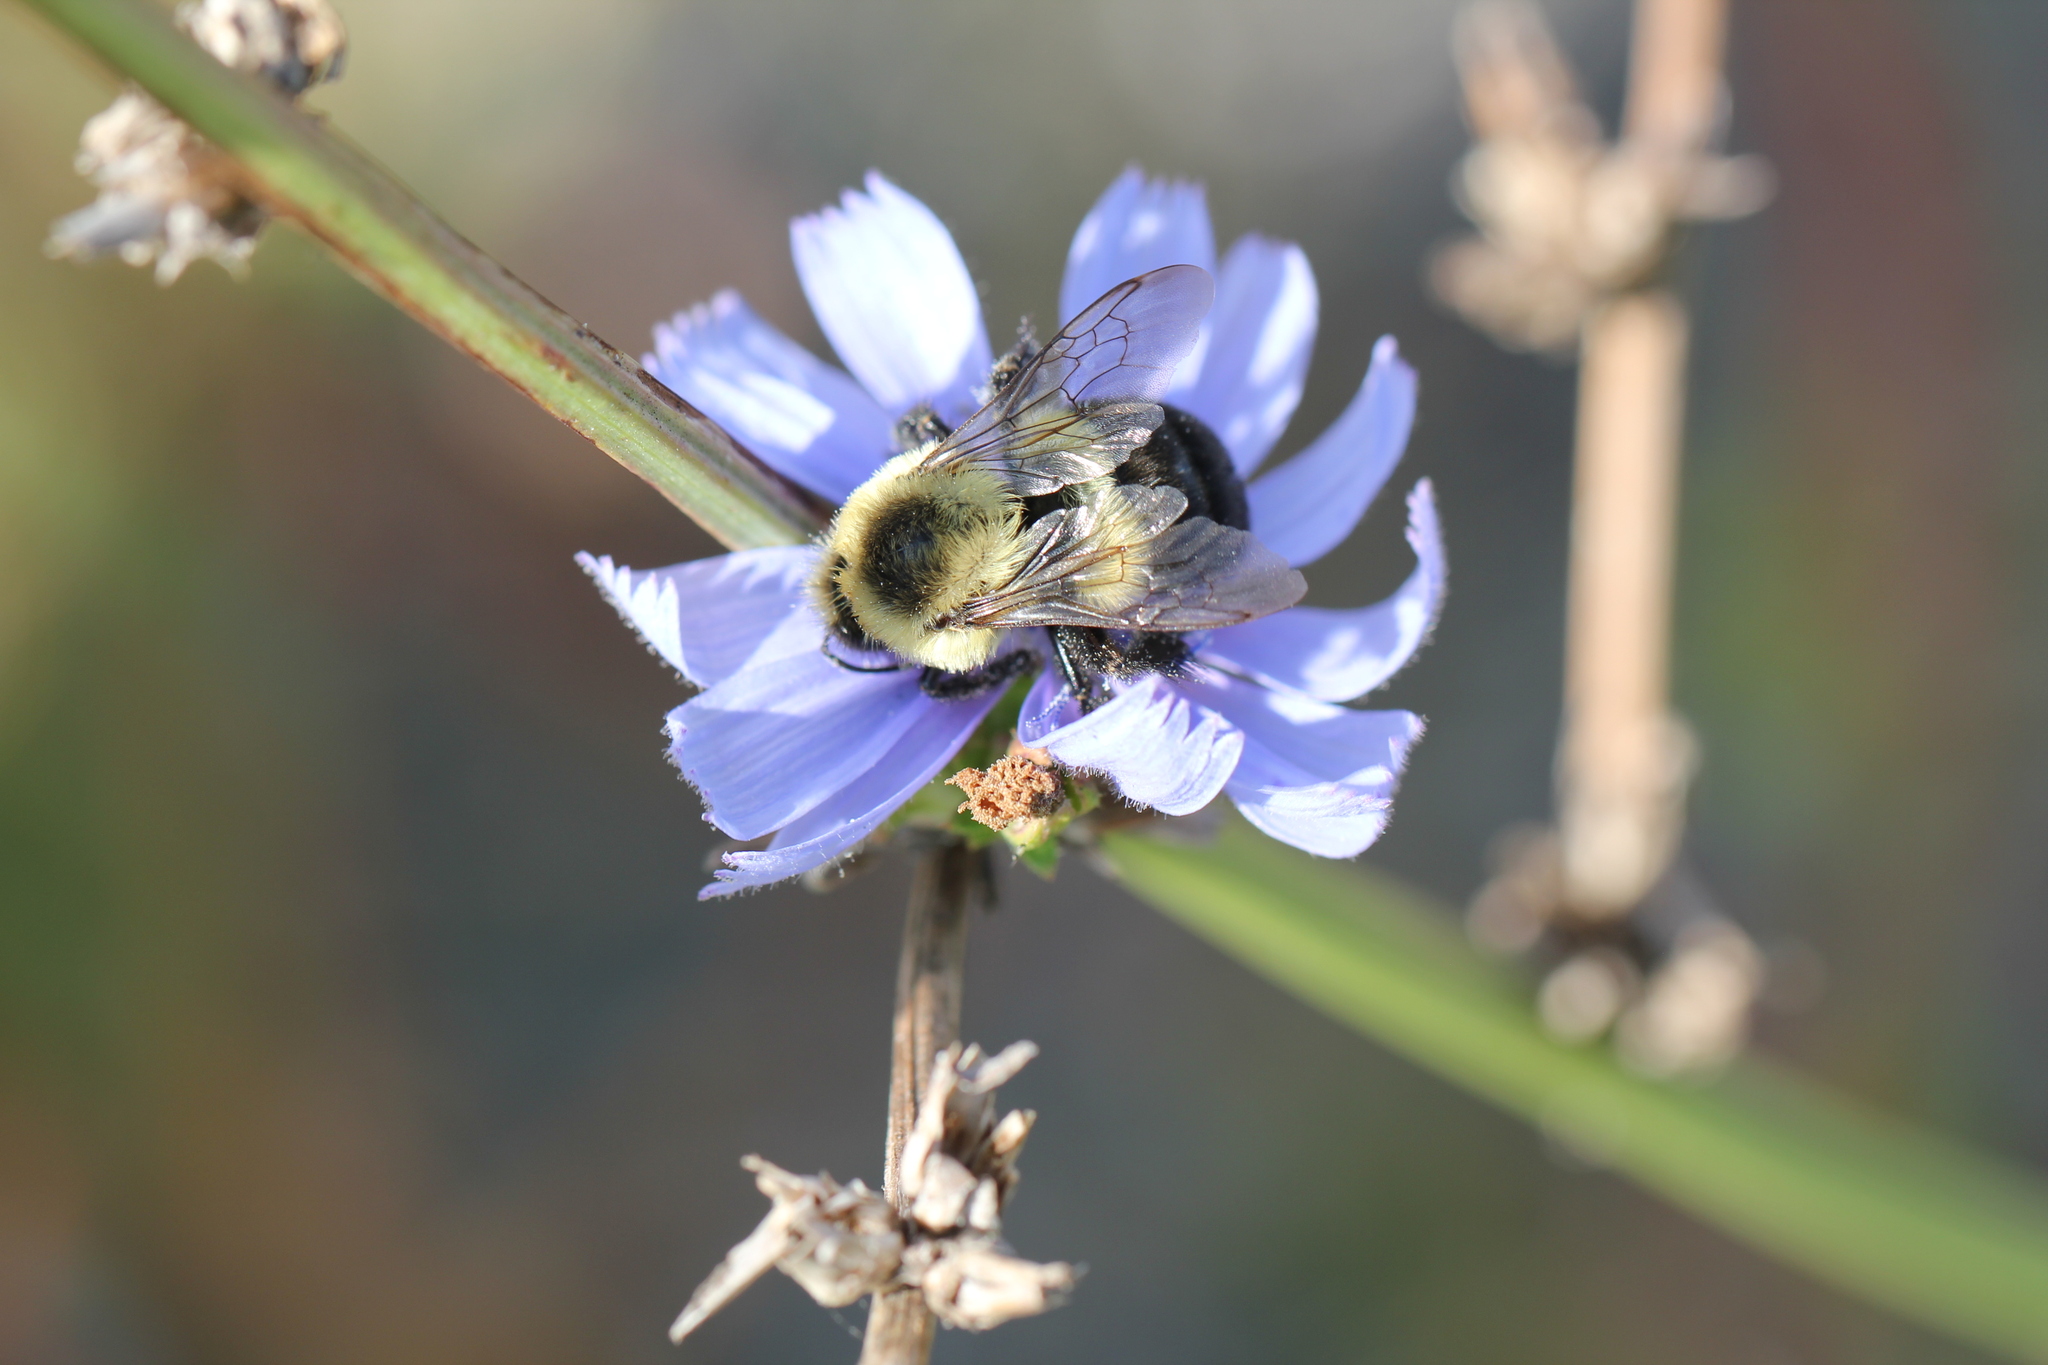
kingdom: Animalia
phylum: Arthropoda
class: Insecta
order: Hymenoptera
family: Apidae
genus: Bombus
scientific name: Bombus impatiens
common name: Common eastern bumble bee
